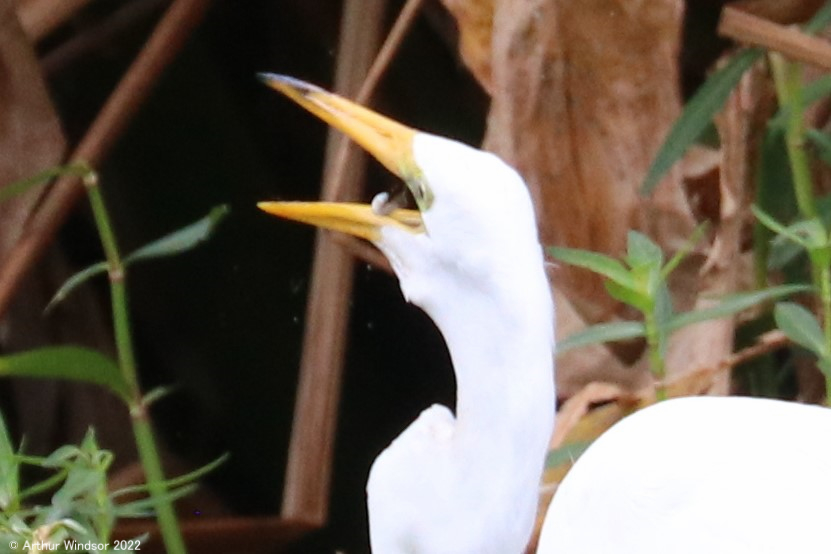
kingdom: Animalia
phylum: Chordata
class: Aves
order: Pelecaniformes
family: Ardeidae
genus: Ardea
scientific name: Ardea alba
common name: Great egret
